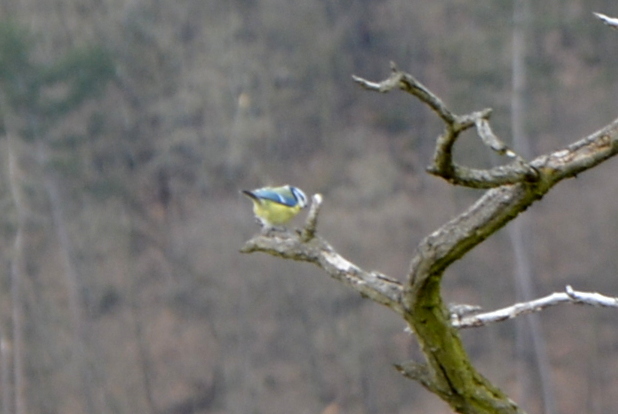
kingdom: Animalia
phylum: Chordata
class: Aves
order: Passeriformes
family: Paridae
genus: Cyanistes
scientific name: Cyanistes caeruleus
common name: Eurasian blue tit
